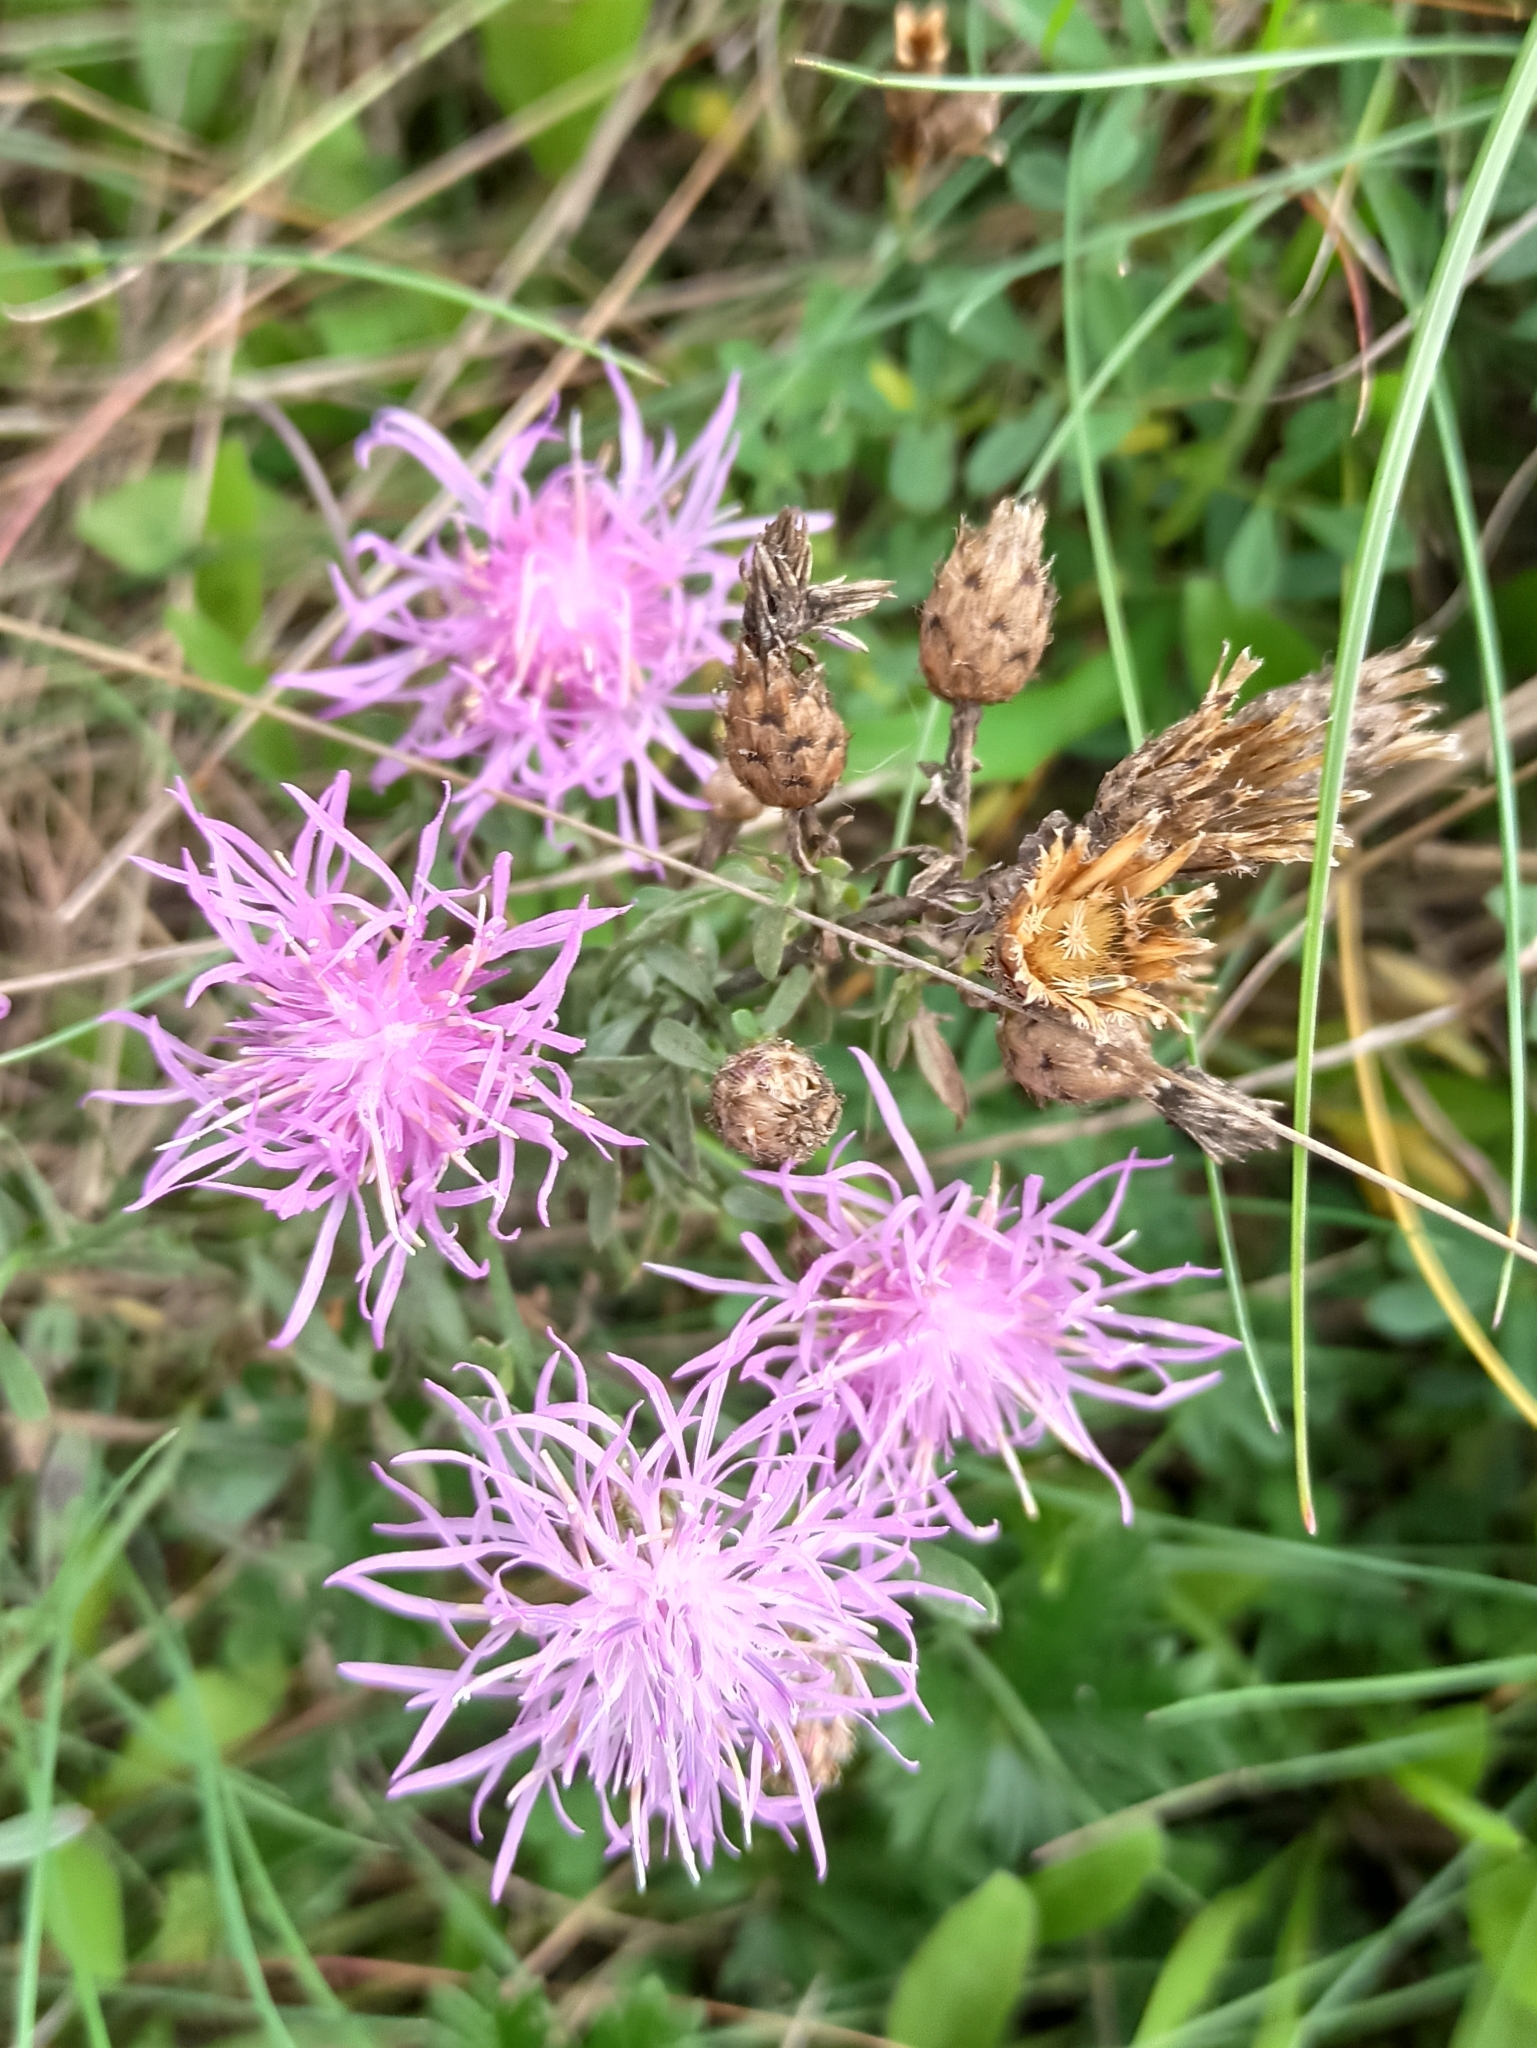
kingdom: Plantae
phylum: Tracheophyta
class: Magnoliopsida
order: Asterales
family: Asteraceae
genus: Centaurea
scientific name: Centaurea stoebe
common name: Spotted knapweed
